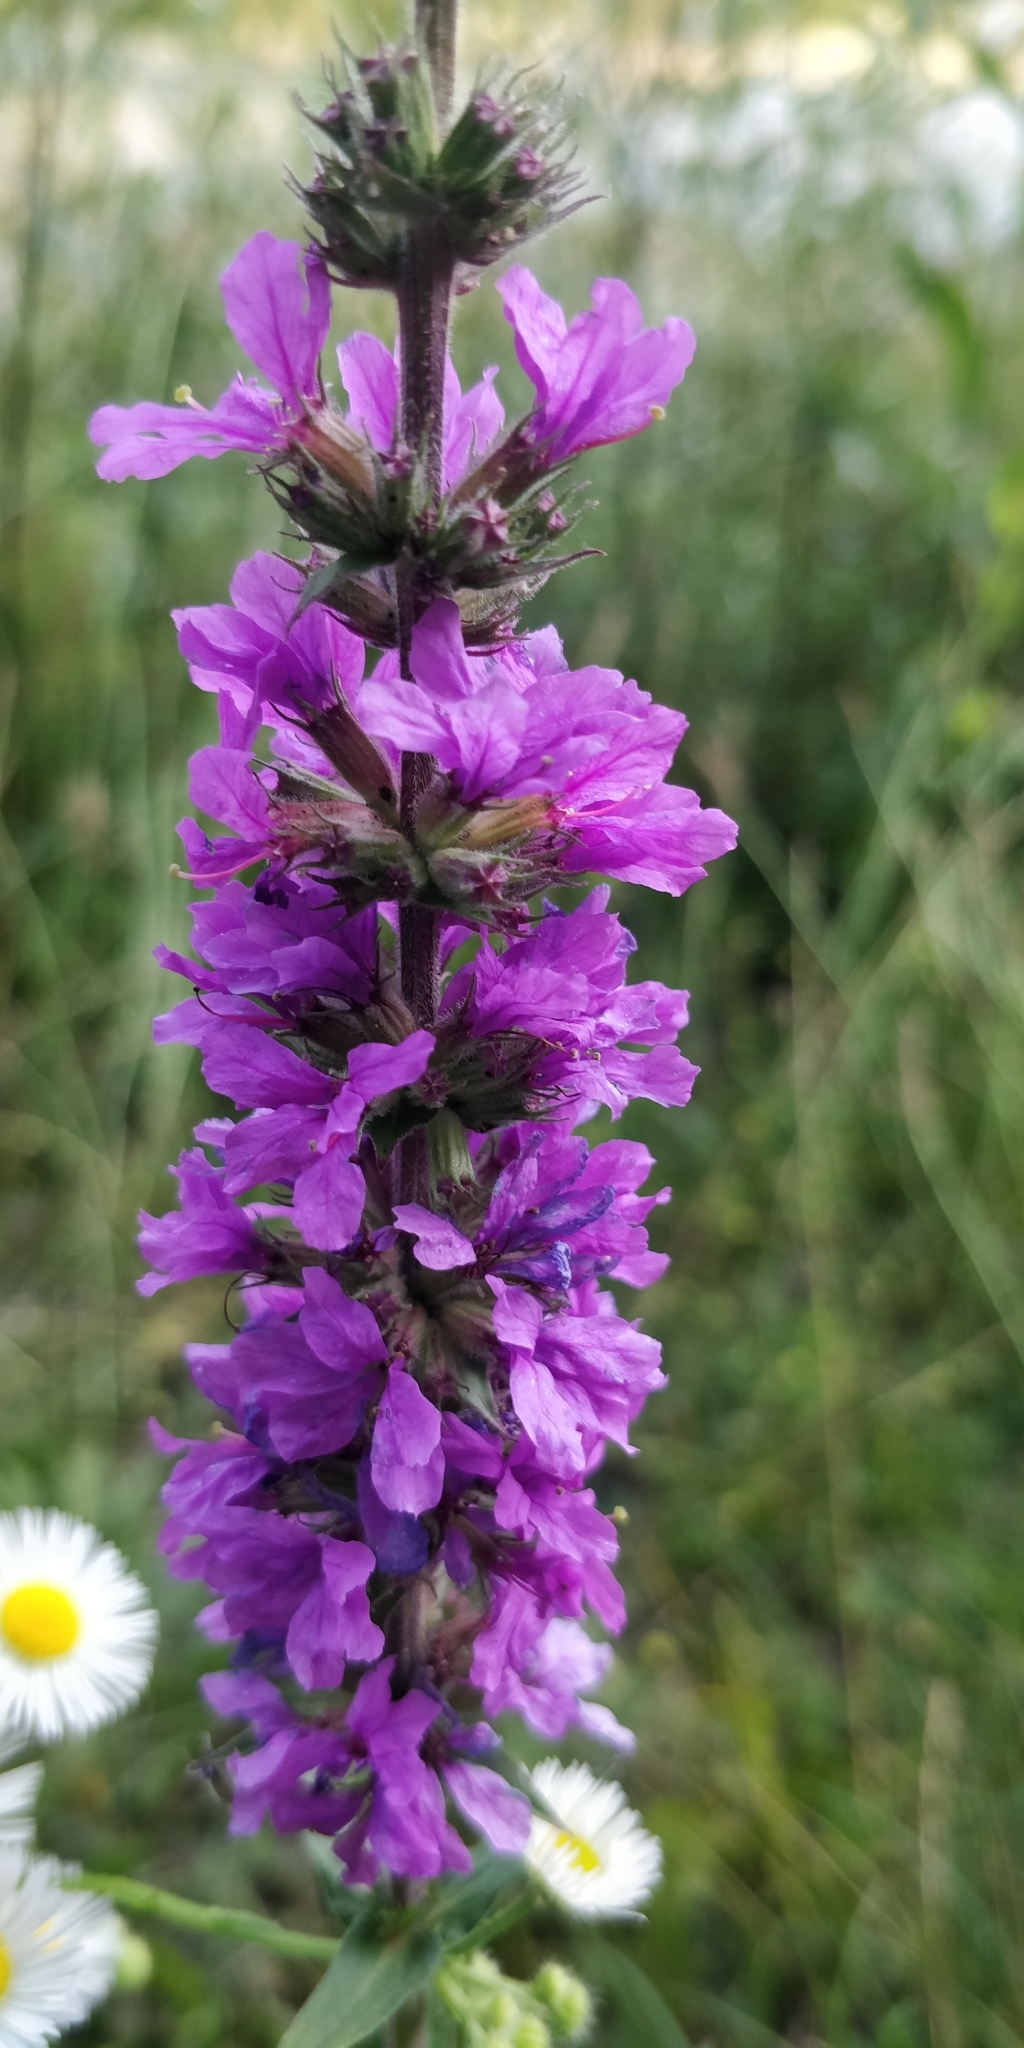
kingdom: Plantae
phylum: Tracheophyta
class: Magnoliopsida
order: Myrtales
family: Lythraceae
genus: Lythrum
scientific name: Lythrum salicaria
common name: Purple loosestrife
